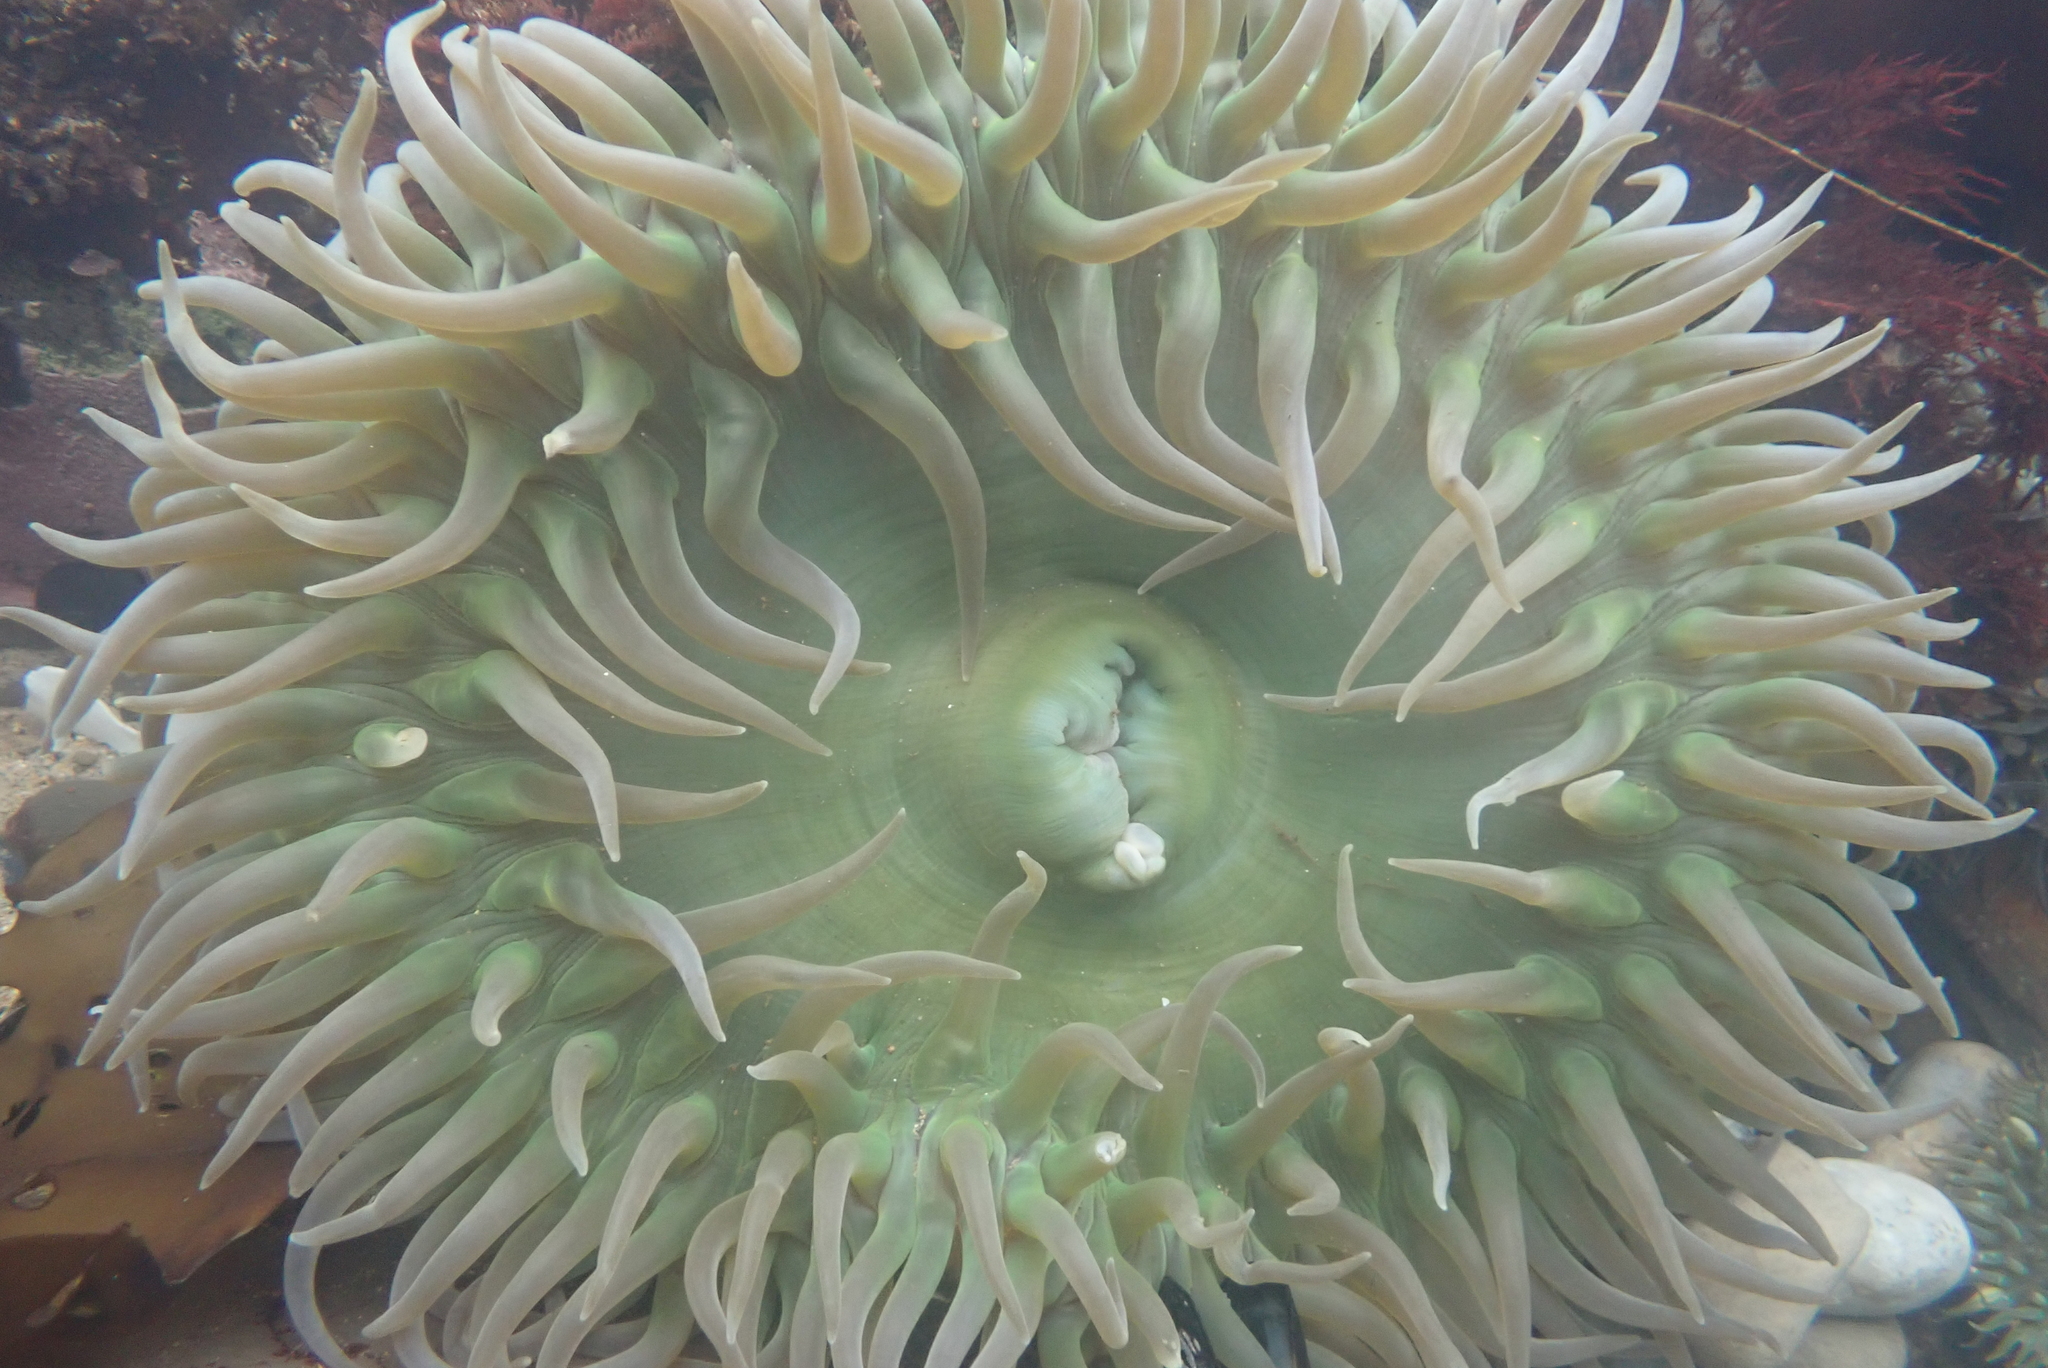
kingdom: Animalia
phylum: Cnidaria
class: Anthozoa
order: Actiniaria
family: Actiniidae
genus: Anthopleura
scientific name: Anthopleura xanthogrammica
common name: Giant green anemone
